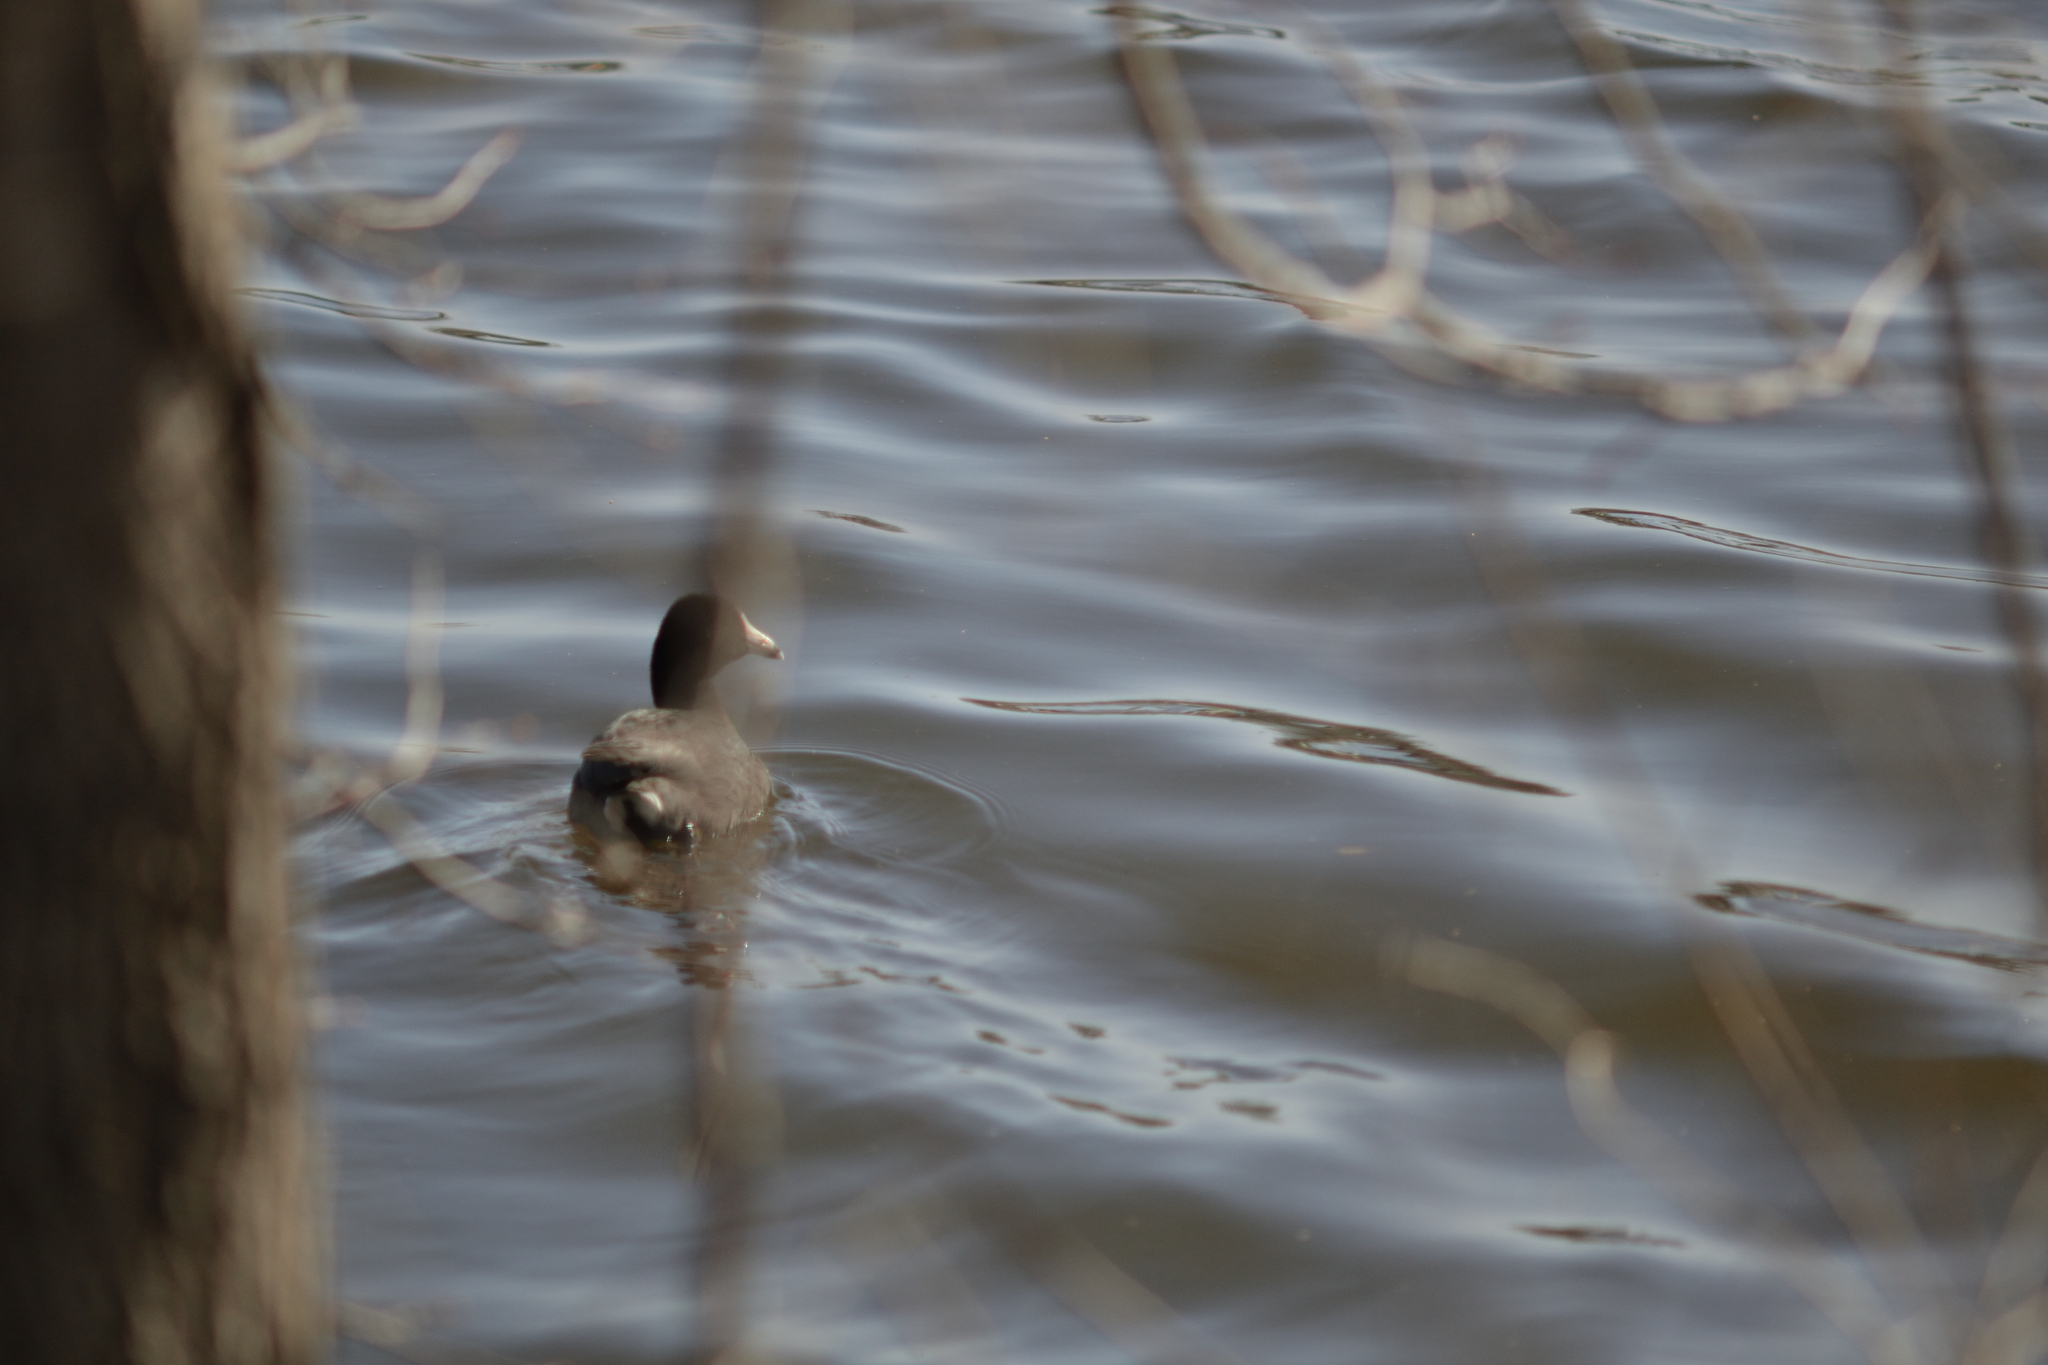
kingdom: Animalia
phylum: Chordata
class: Aves
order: Gruiformes
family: Rallidae
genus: Fulica
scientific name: Fulica americana
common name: American coot
